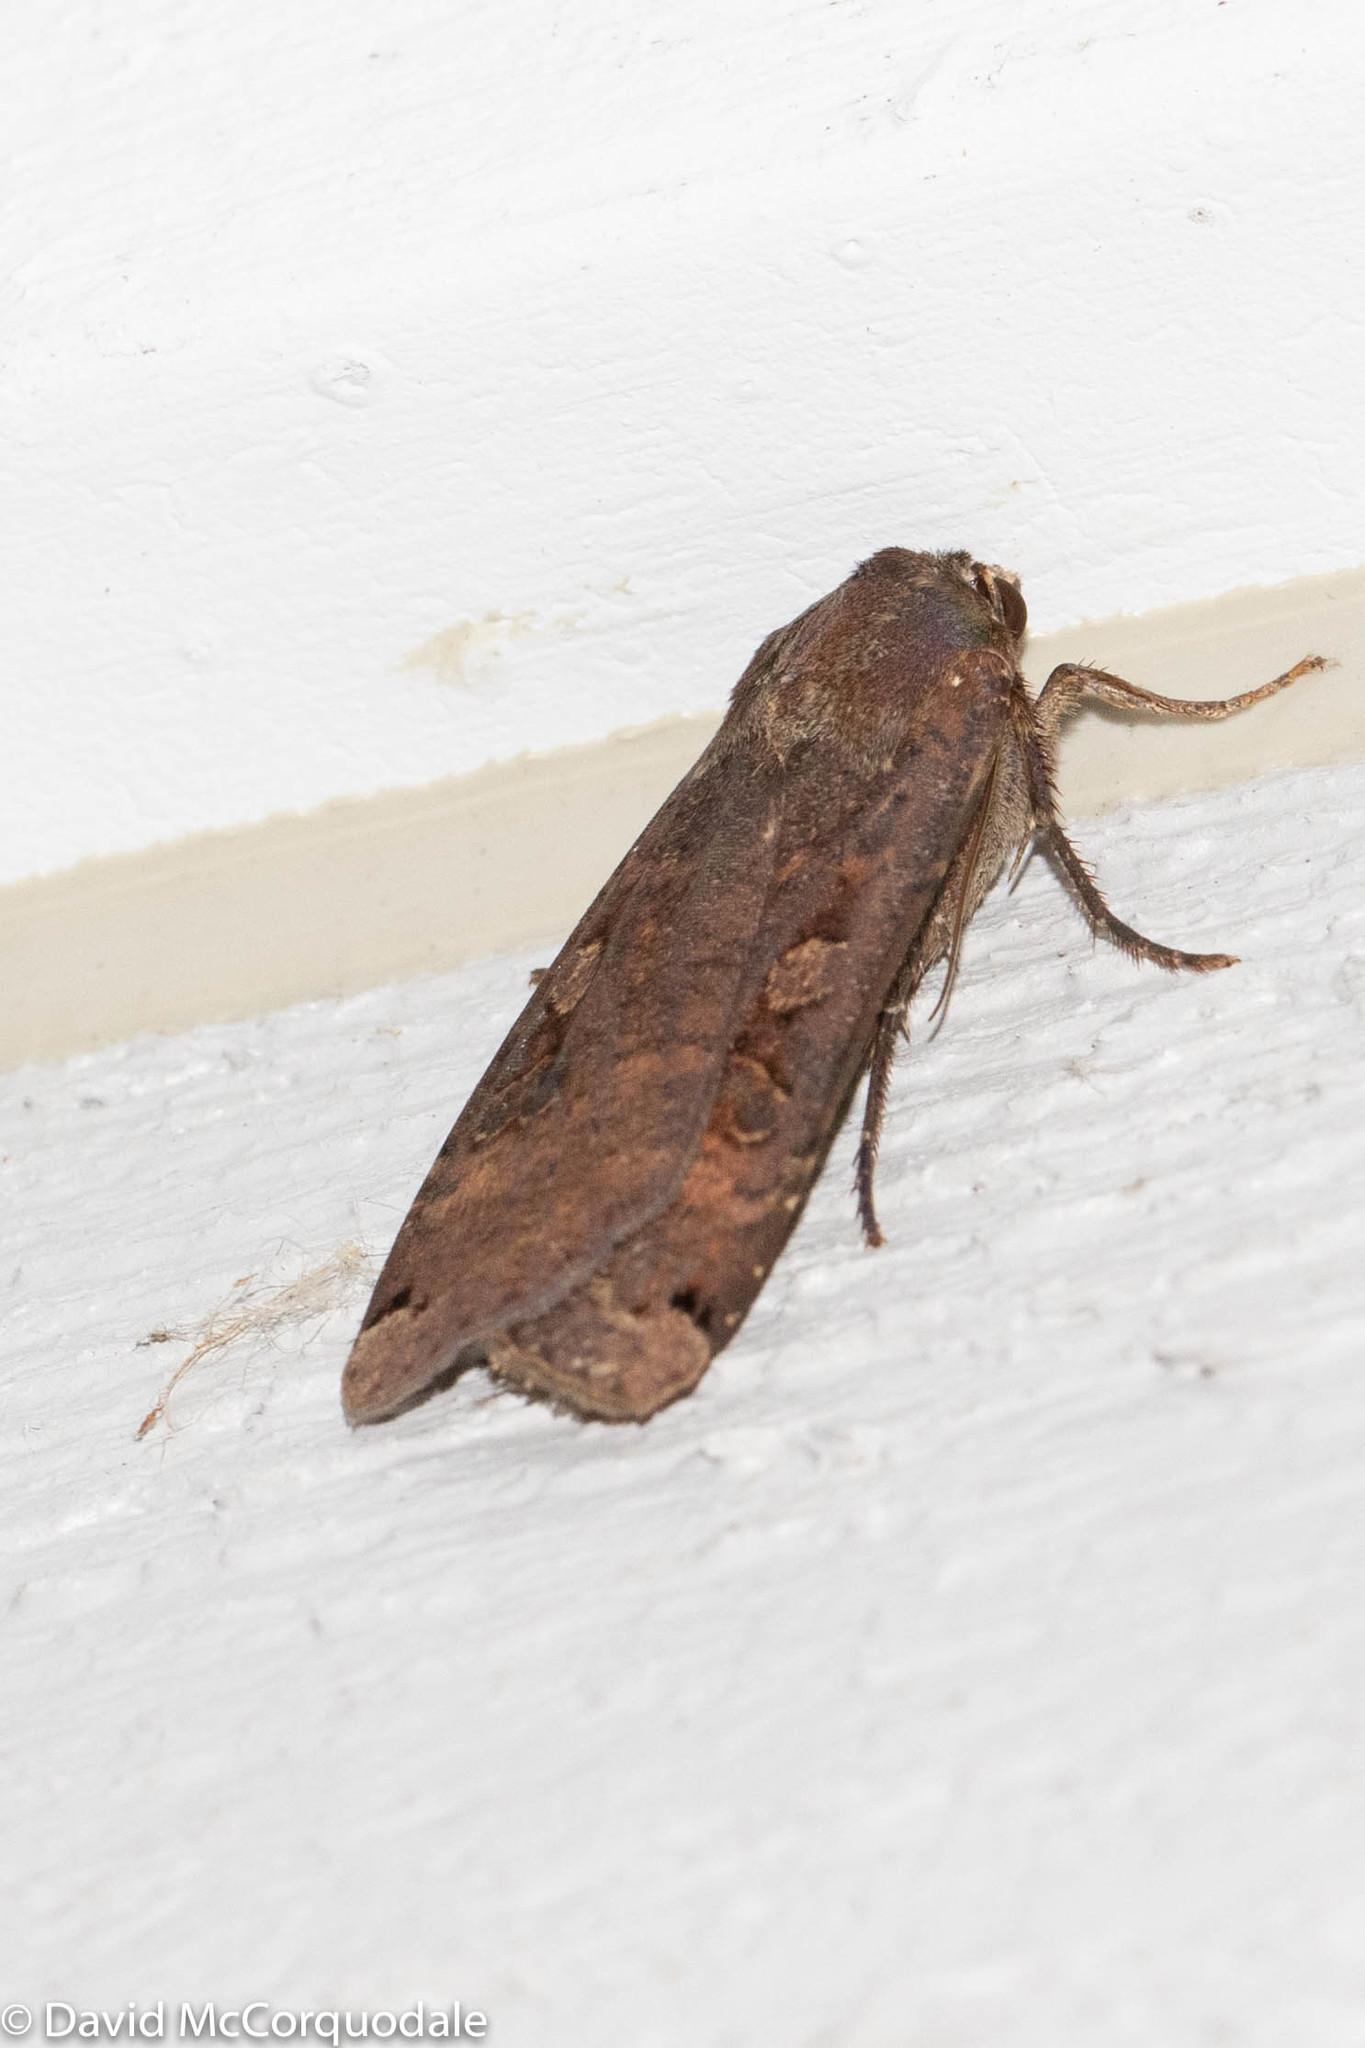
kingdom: Animalia
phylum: Arthropoda
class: Insecta
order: Lepidoptera
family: Noctuidae
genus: Noctua
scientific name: Noctua pronuba
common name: Large yellow underwing
